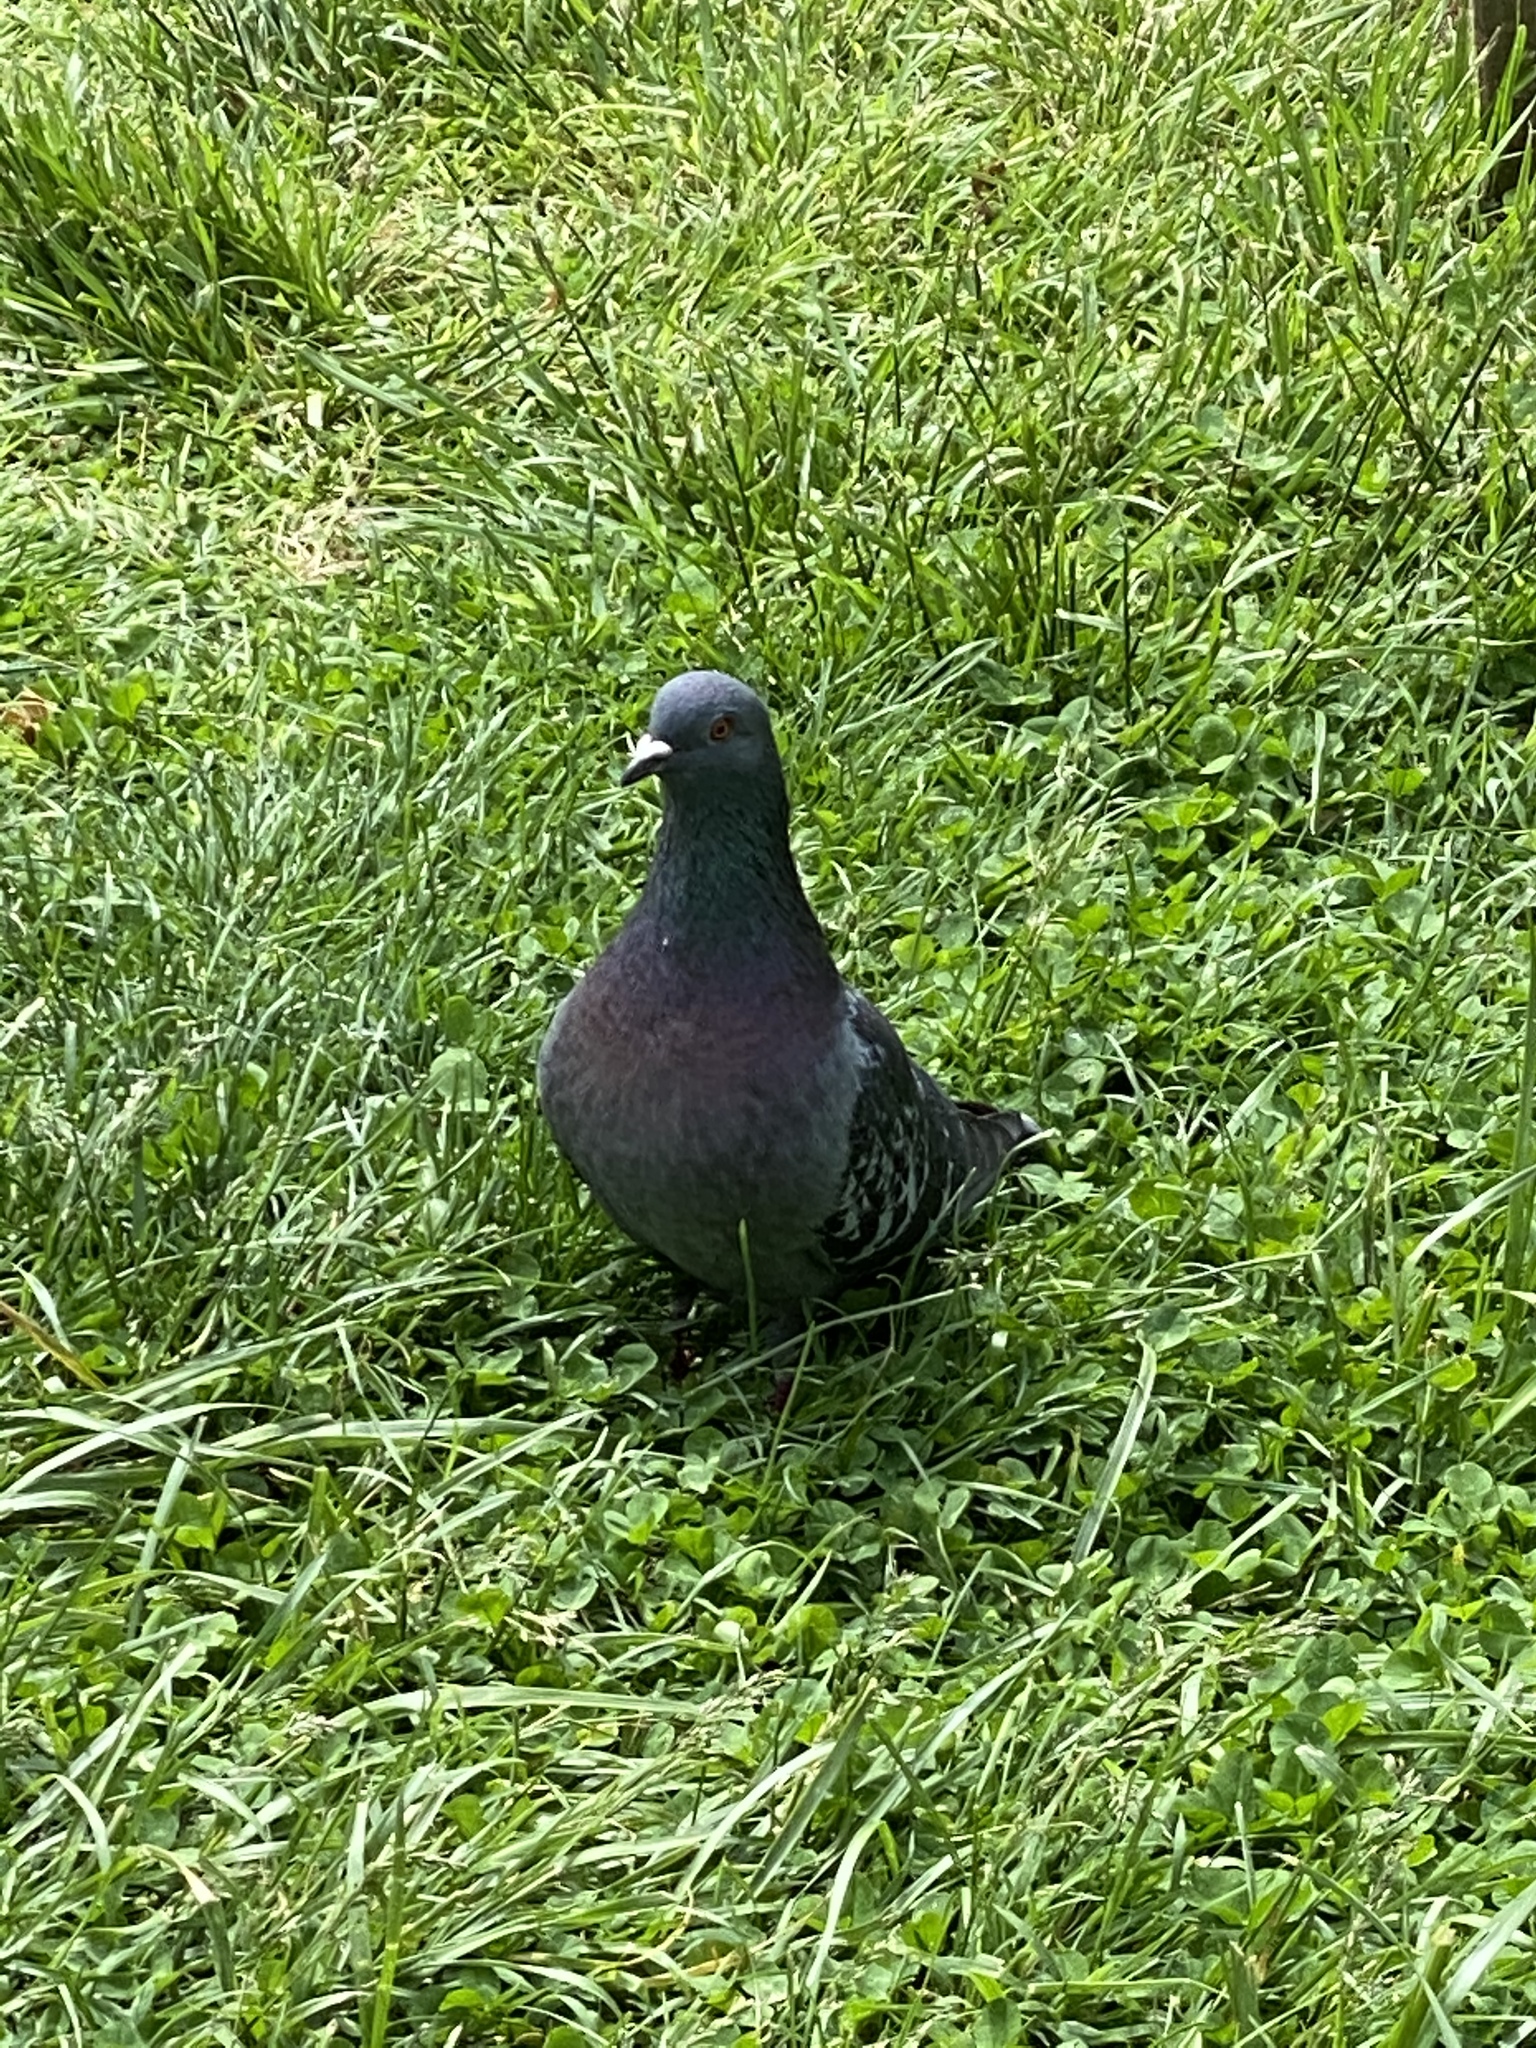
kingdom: Animalia
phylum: Chordata
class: Aves
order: Columbiformes
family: Columbidae
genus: Columba
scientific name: Columba livia
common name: Rock pigeon
